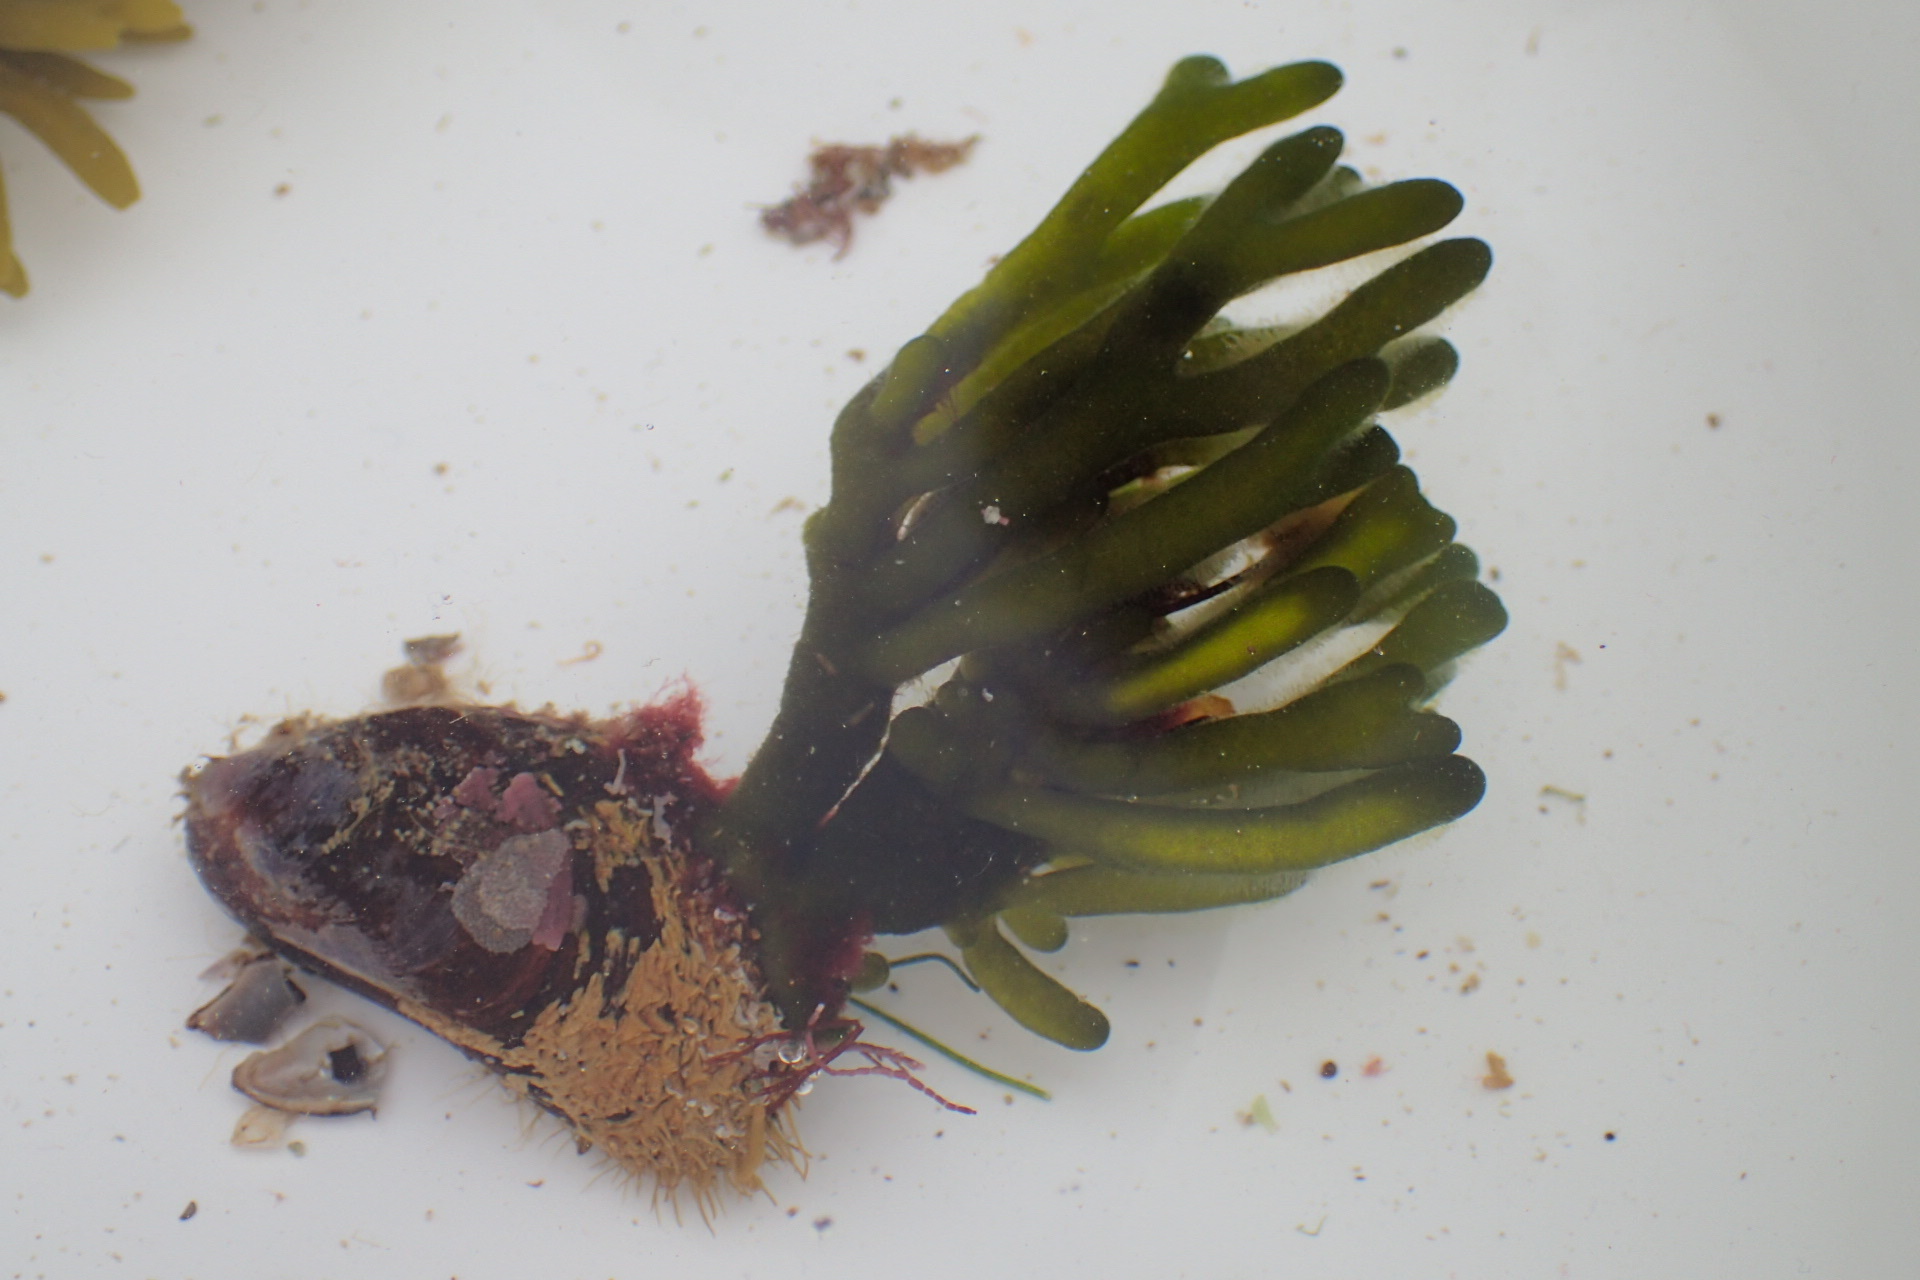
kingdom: Plantae
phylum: Chlorophyta
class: Ulvophyceae
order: Bryopsidales
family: Codiaceae
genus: Codium
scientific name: Codium fragile
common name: Dead man's fingers
